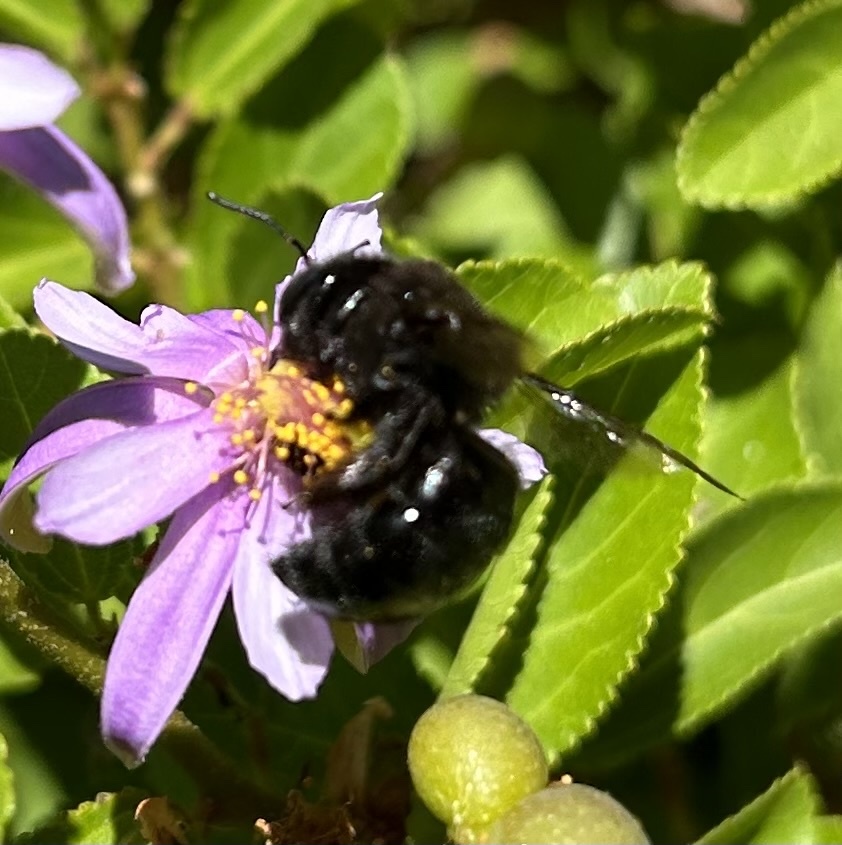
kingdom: Animalia
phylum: Arthropoda
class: Insecta
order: Hymenoptera
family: Apidae
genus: Xylocopa
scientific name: Xylocopa tabaniformis
